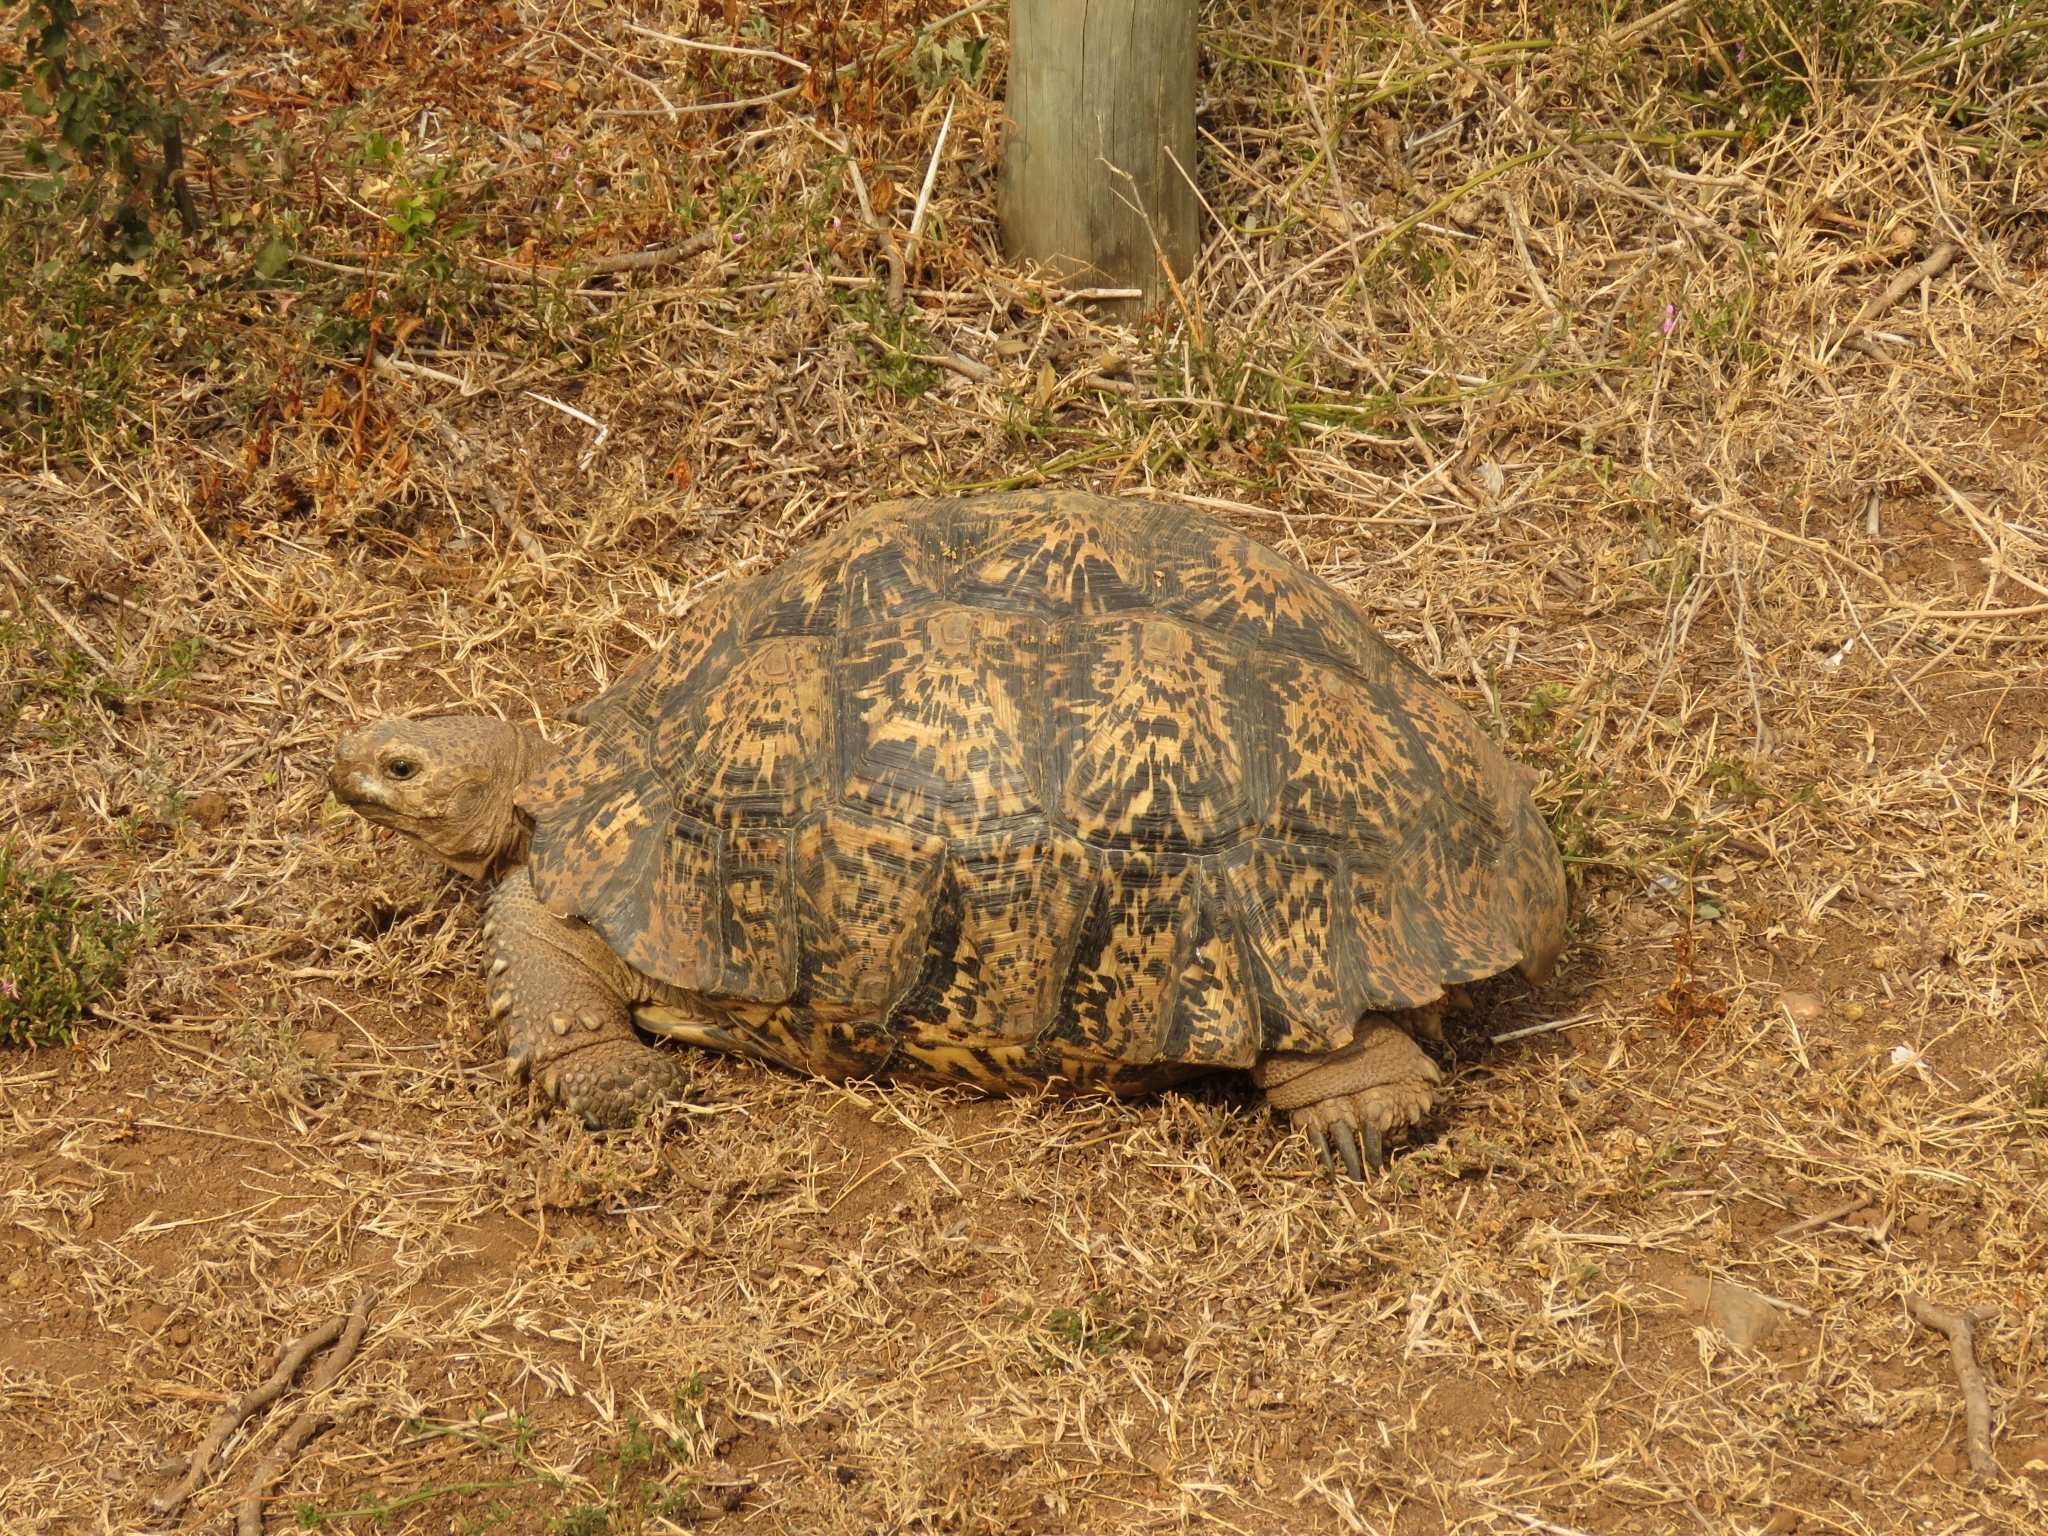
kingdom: Animalia
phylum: Chordata
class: Testudines
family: Testudinidae
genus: Stigmochelys
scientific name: Stigmochelys pardalis
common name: Leopard tortoise
